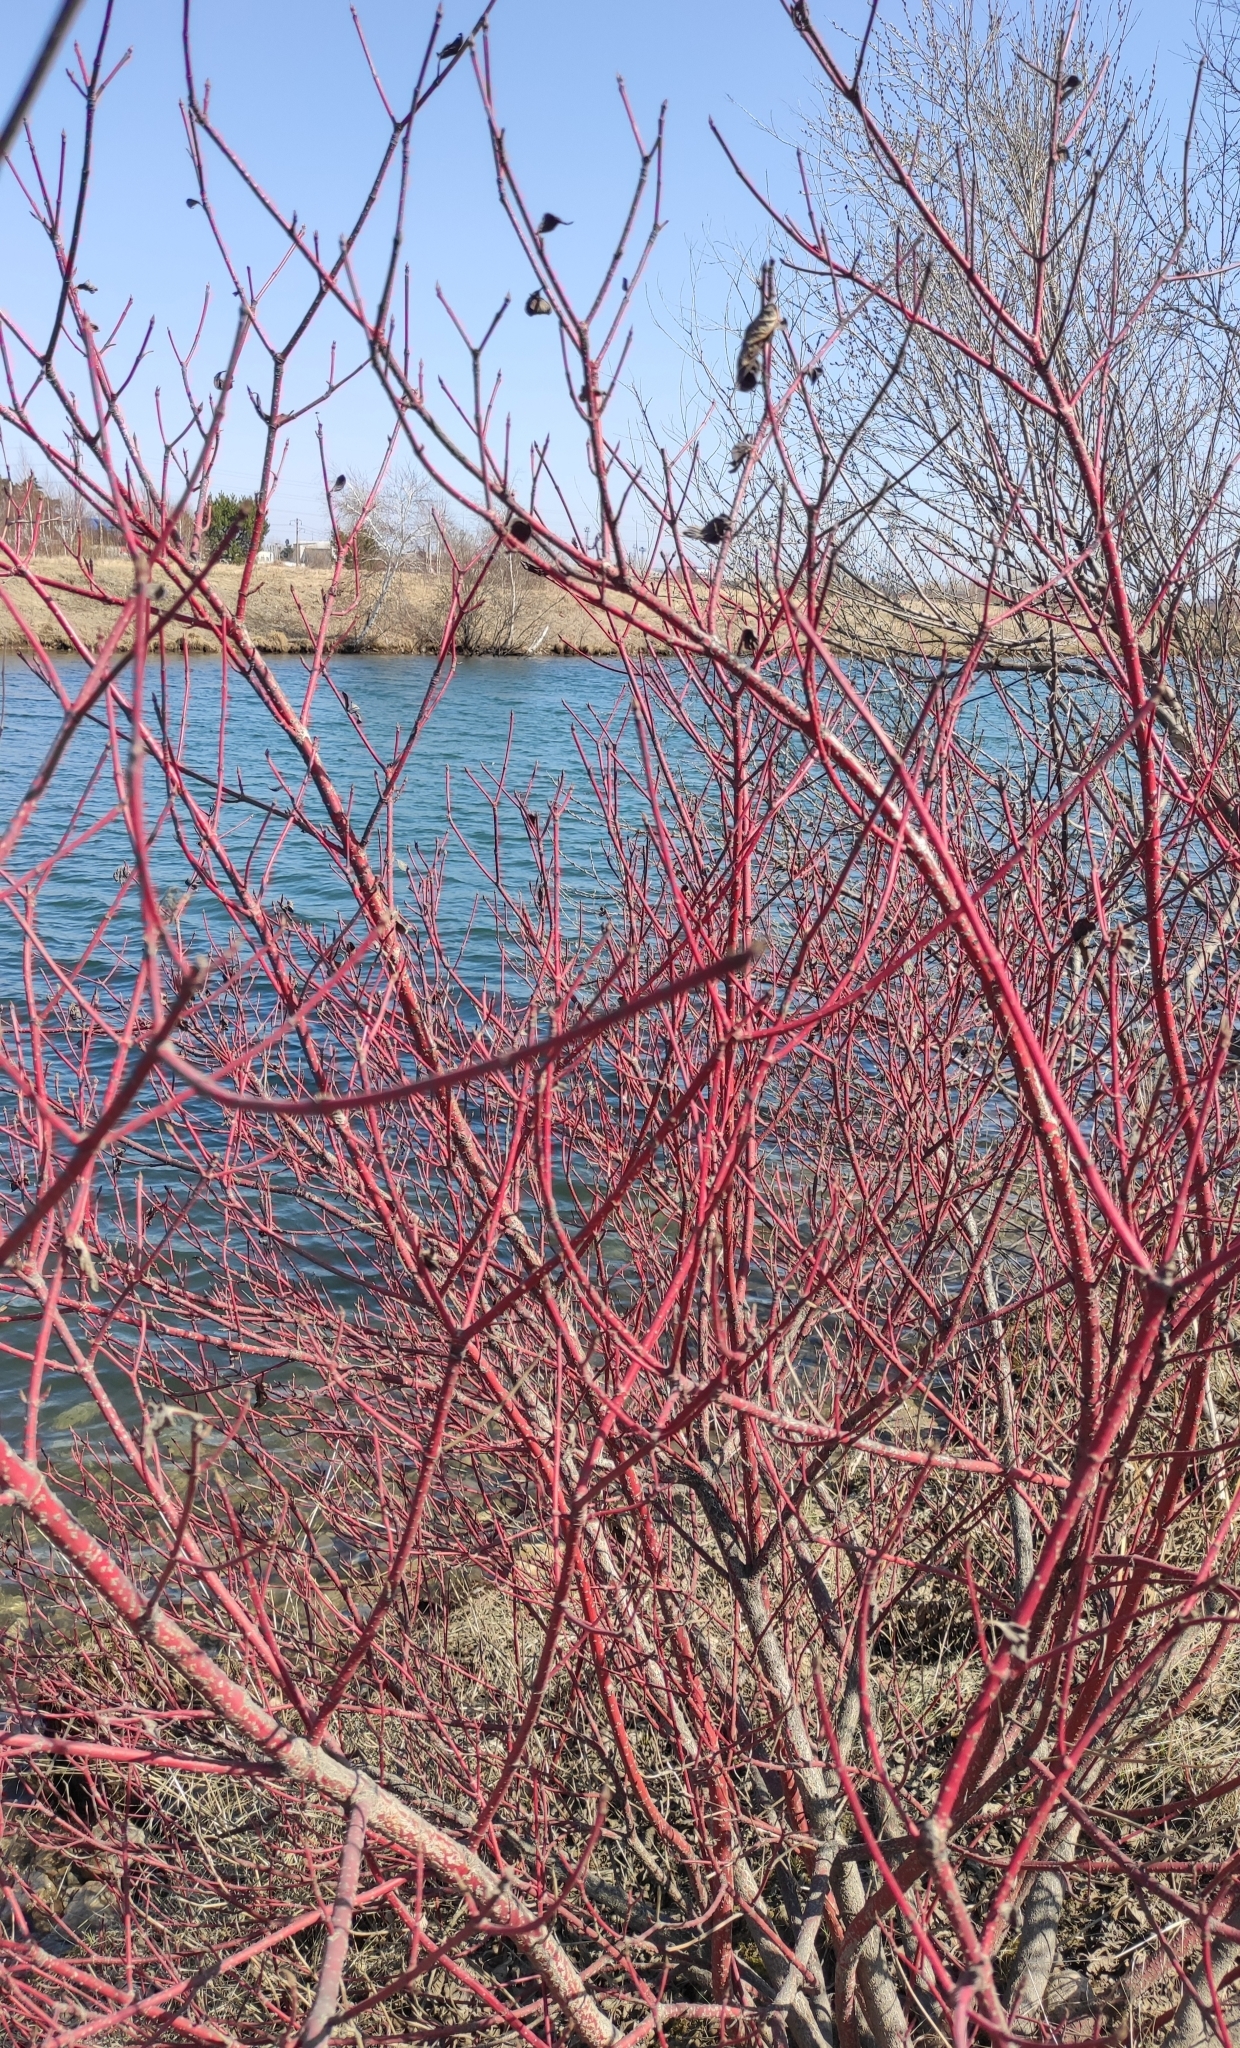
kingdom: Plantae
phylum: Tracheophyta
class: Magnoliopsida
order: Cornales
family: Cornaceae
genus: Cornus
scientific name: Cornus alba
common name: White dogwood
